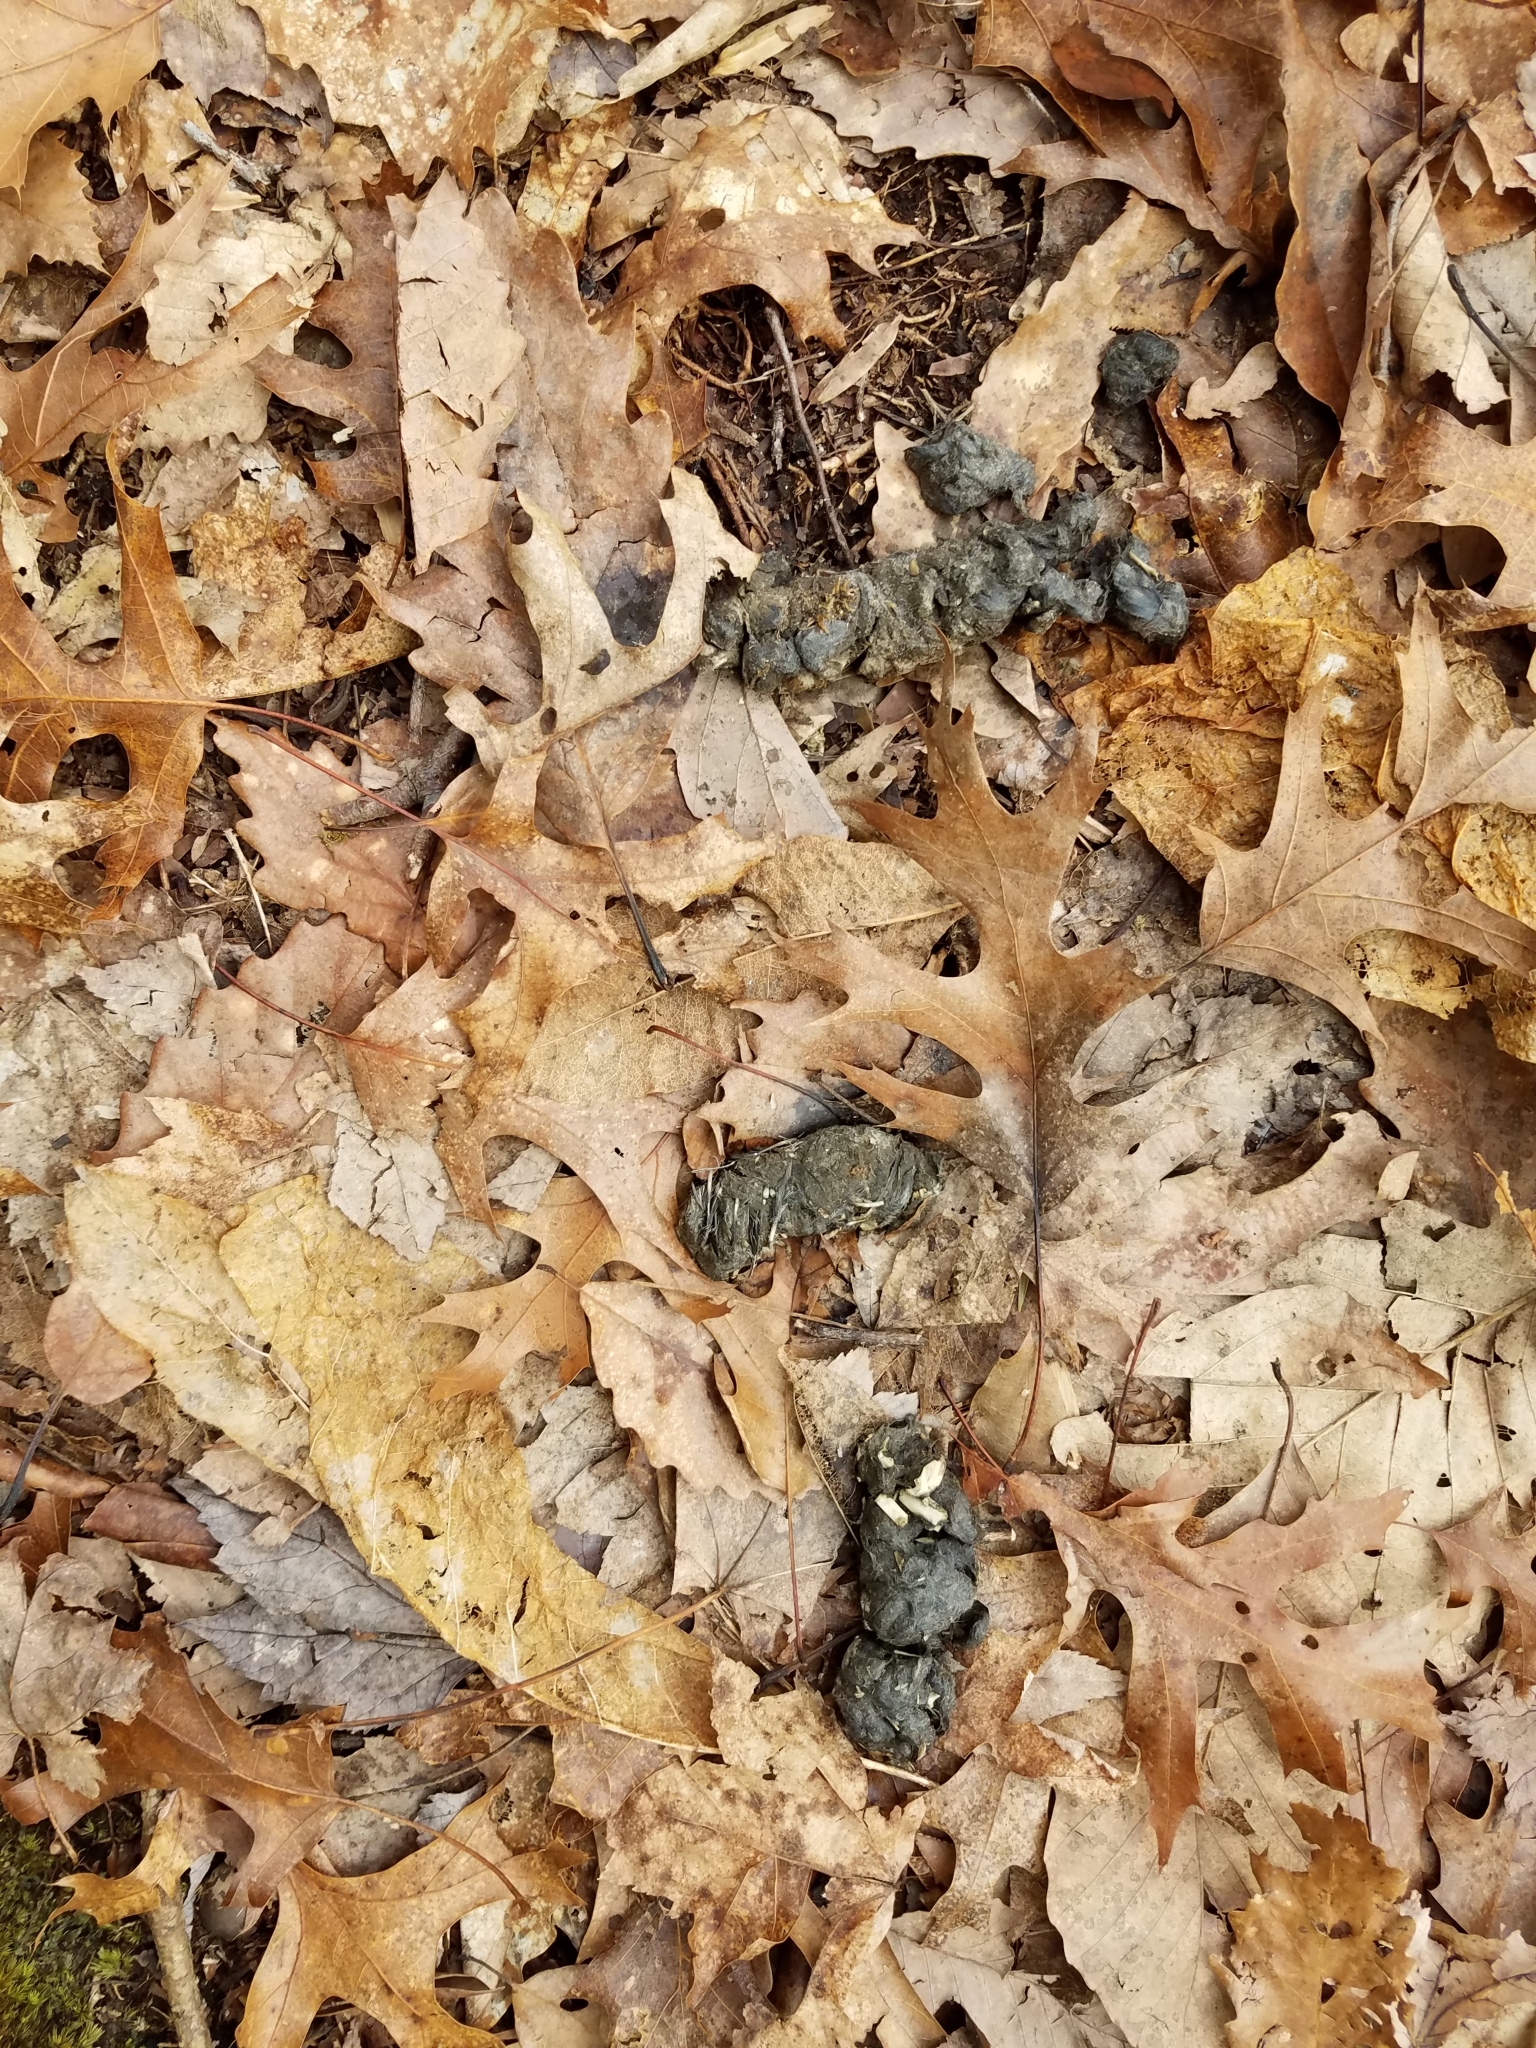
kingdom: Animalia
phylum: Chordata
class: Mammalia
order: Carnivora
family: Canidae
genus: Canis
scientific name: Canis latrans
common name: Coyote
